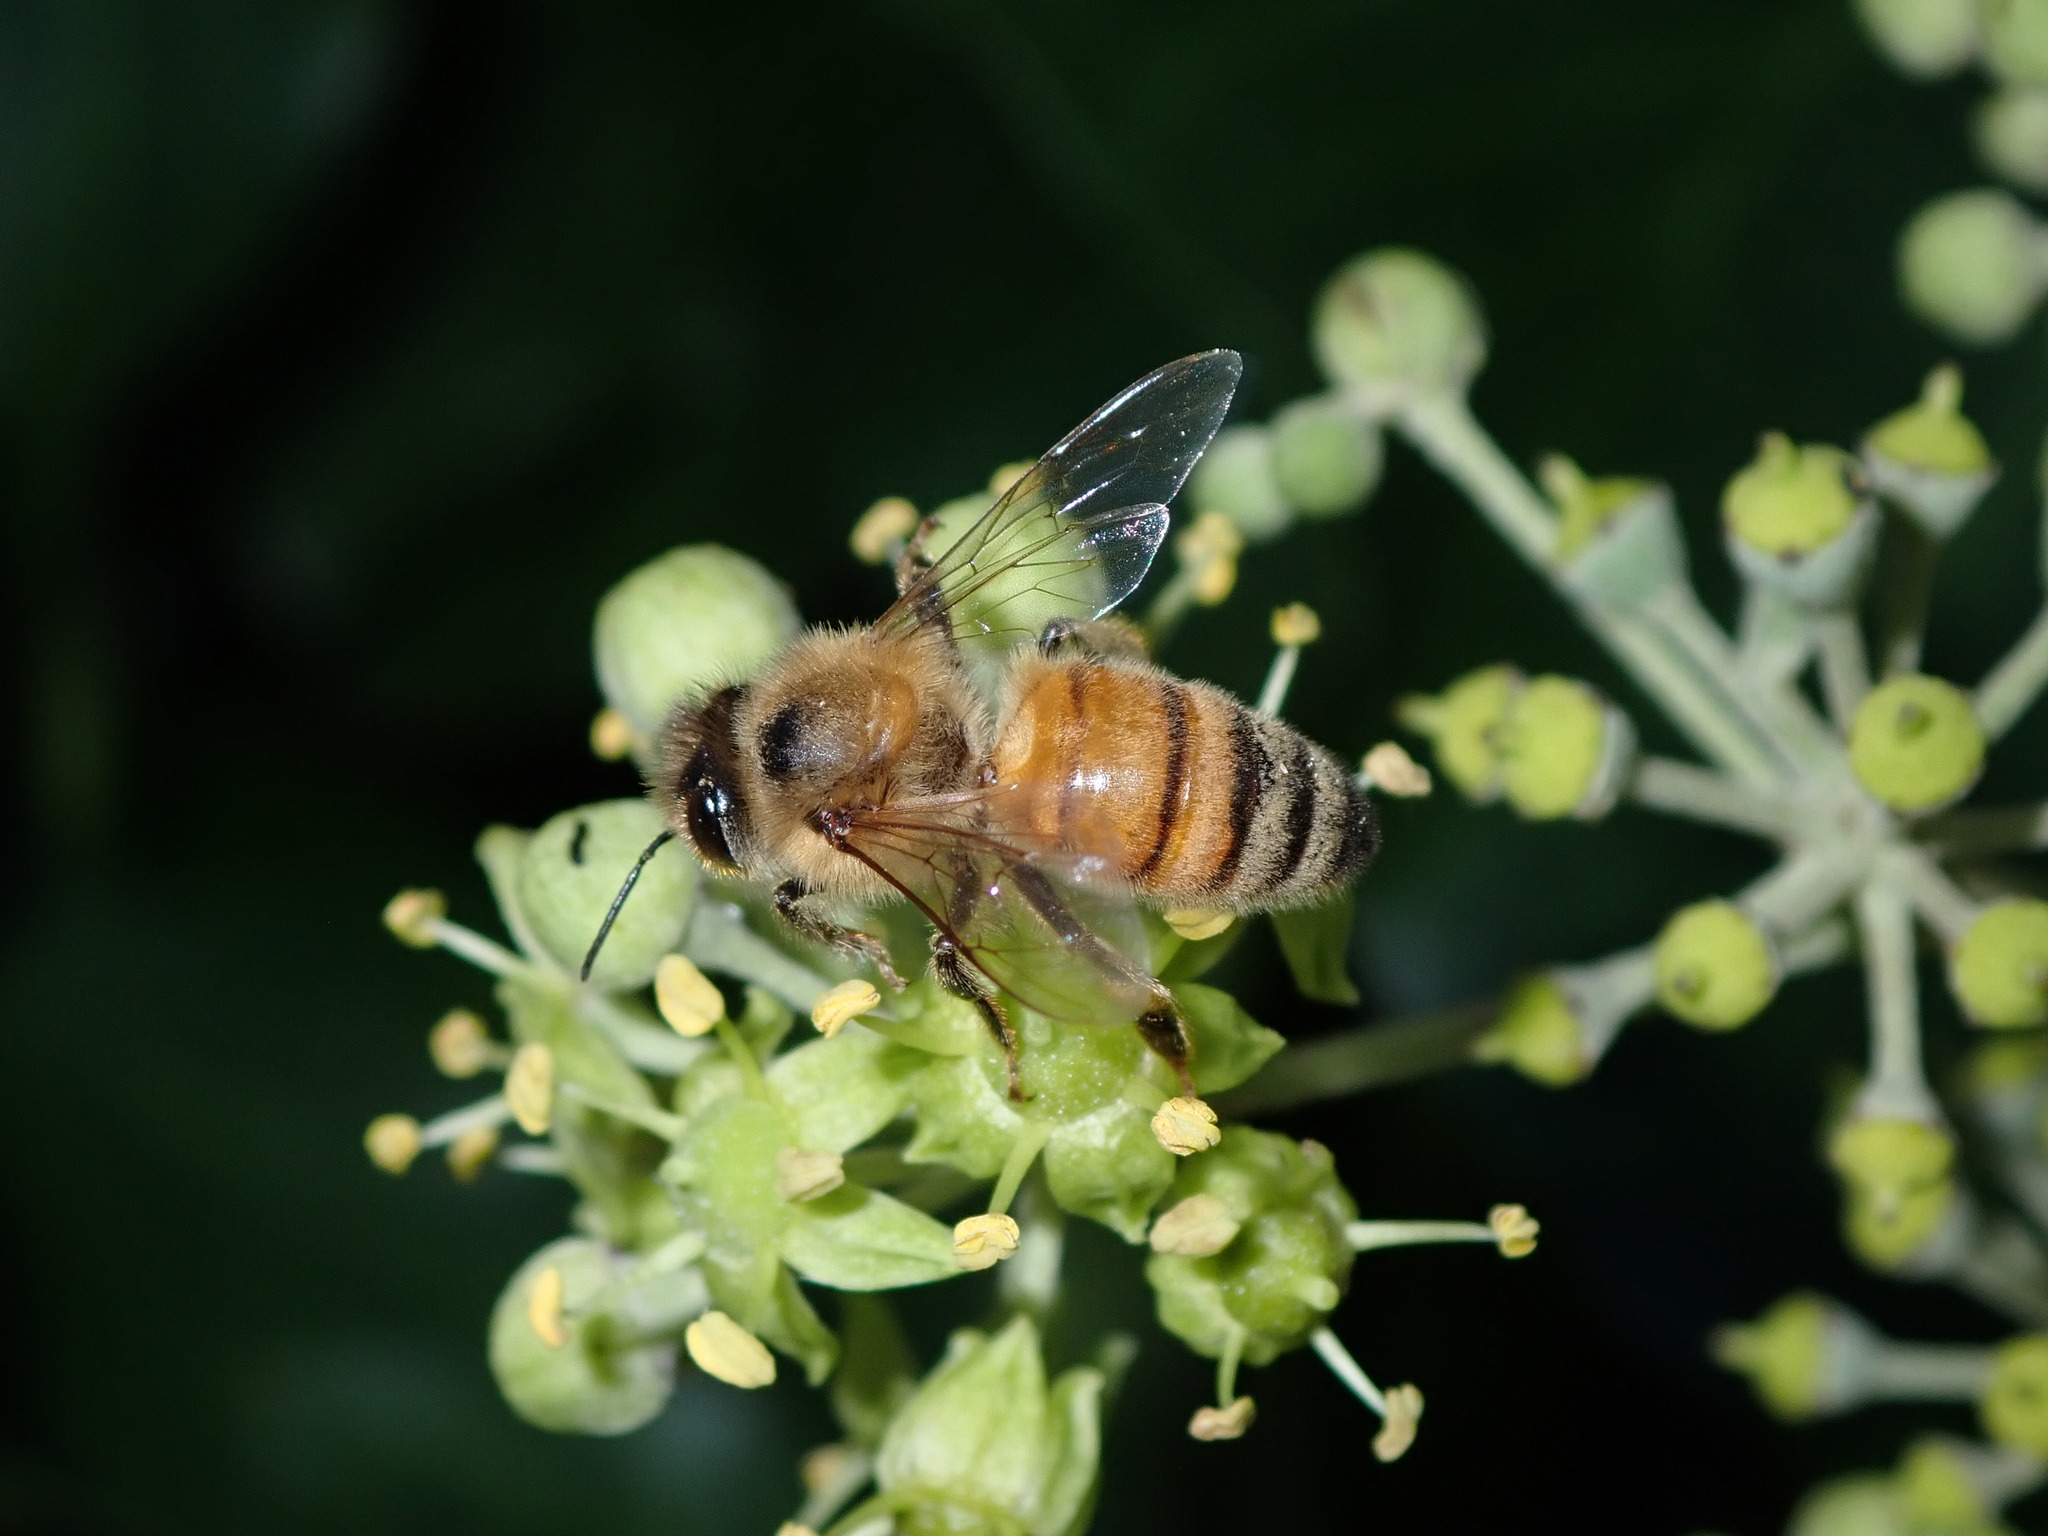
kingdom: Animalia
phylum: Arthropoda
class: Insecta
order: Hymenoptera
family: Apidae
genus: Apis
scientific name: Apis mellifera
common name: Honey bee
